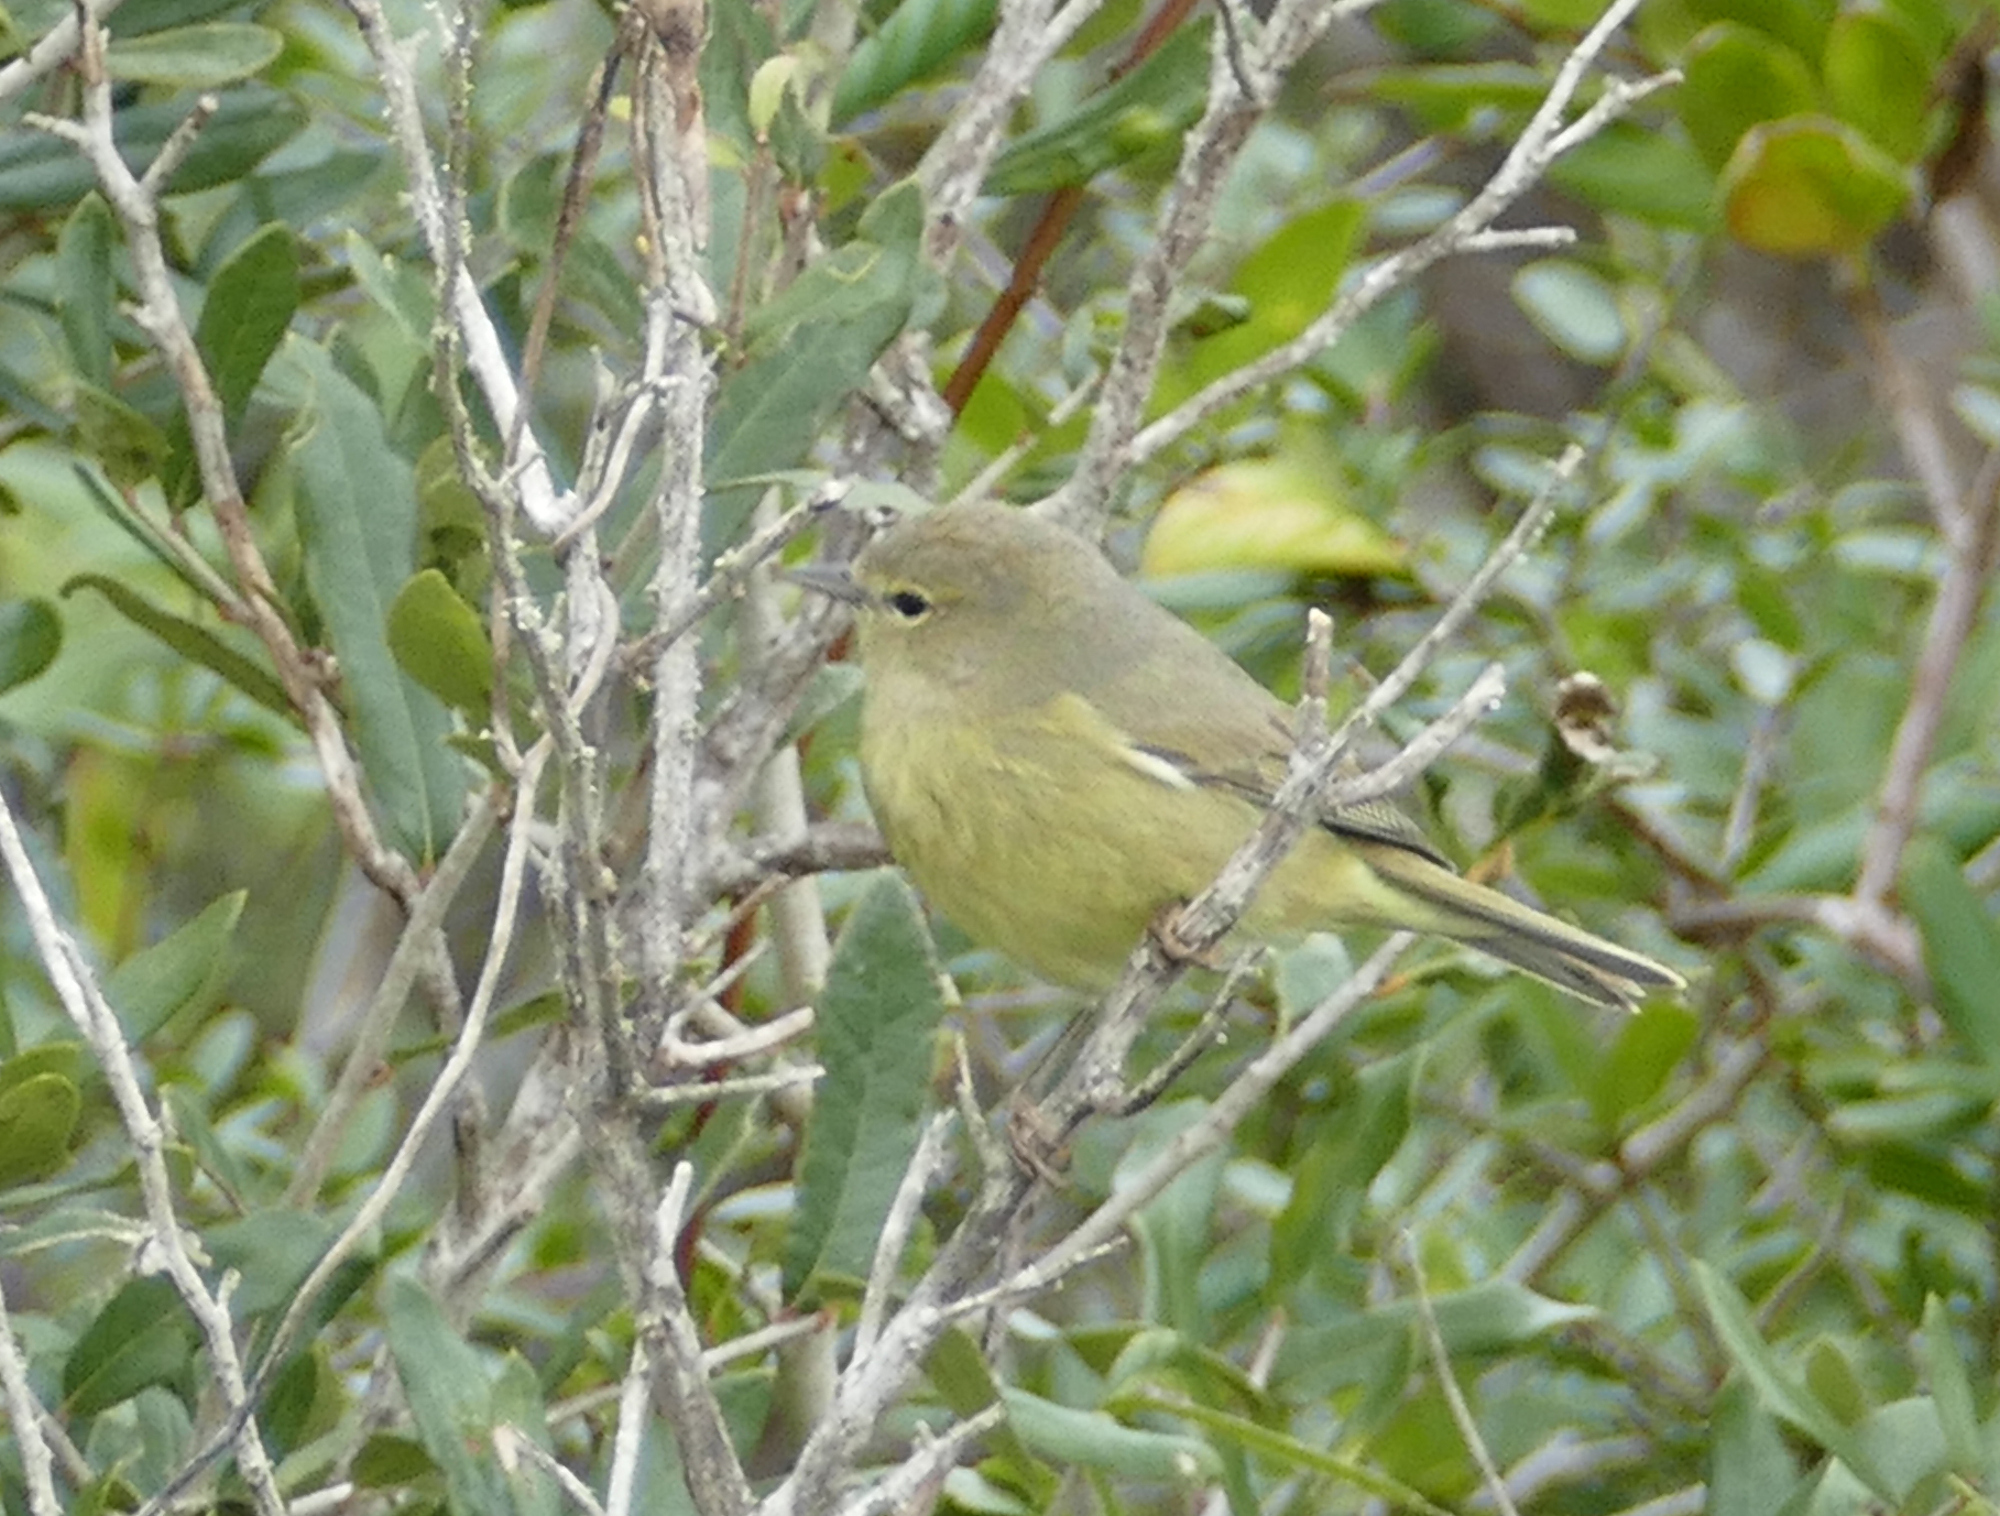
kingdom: Animalia
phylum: Chordata
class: Aves
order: Passeriformes
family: Parulidae
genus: Leiothlypis
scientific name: Leiothlypis celata
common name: Orange-crowned warbler
